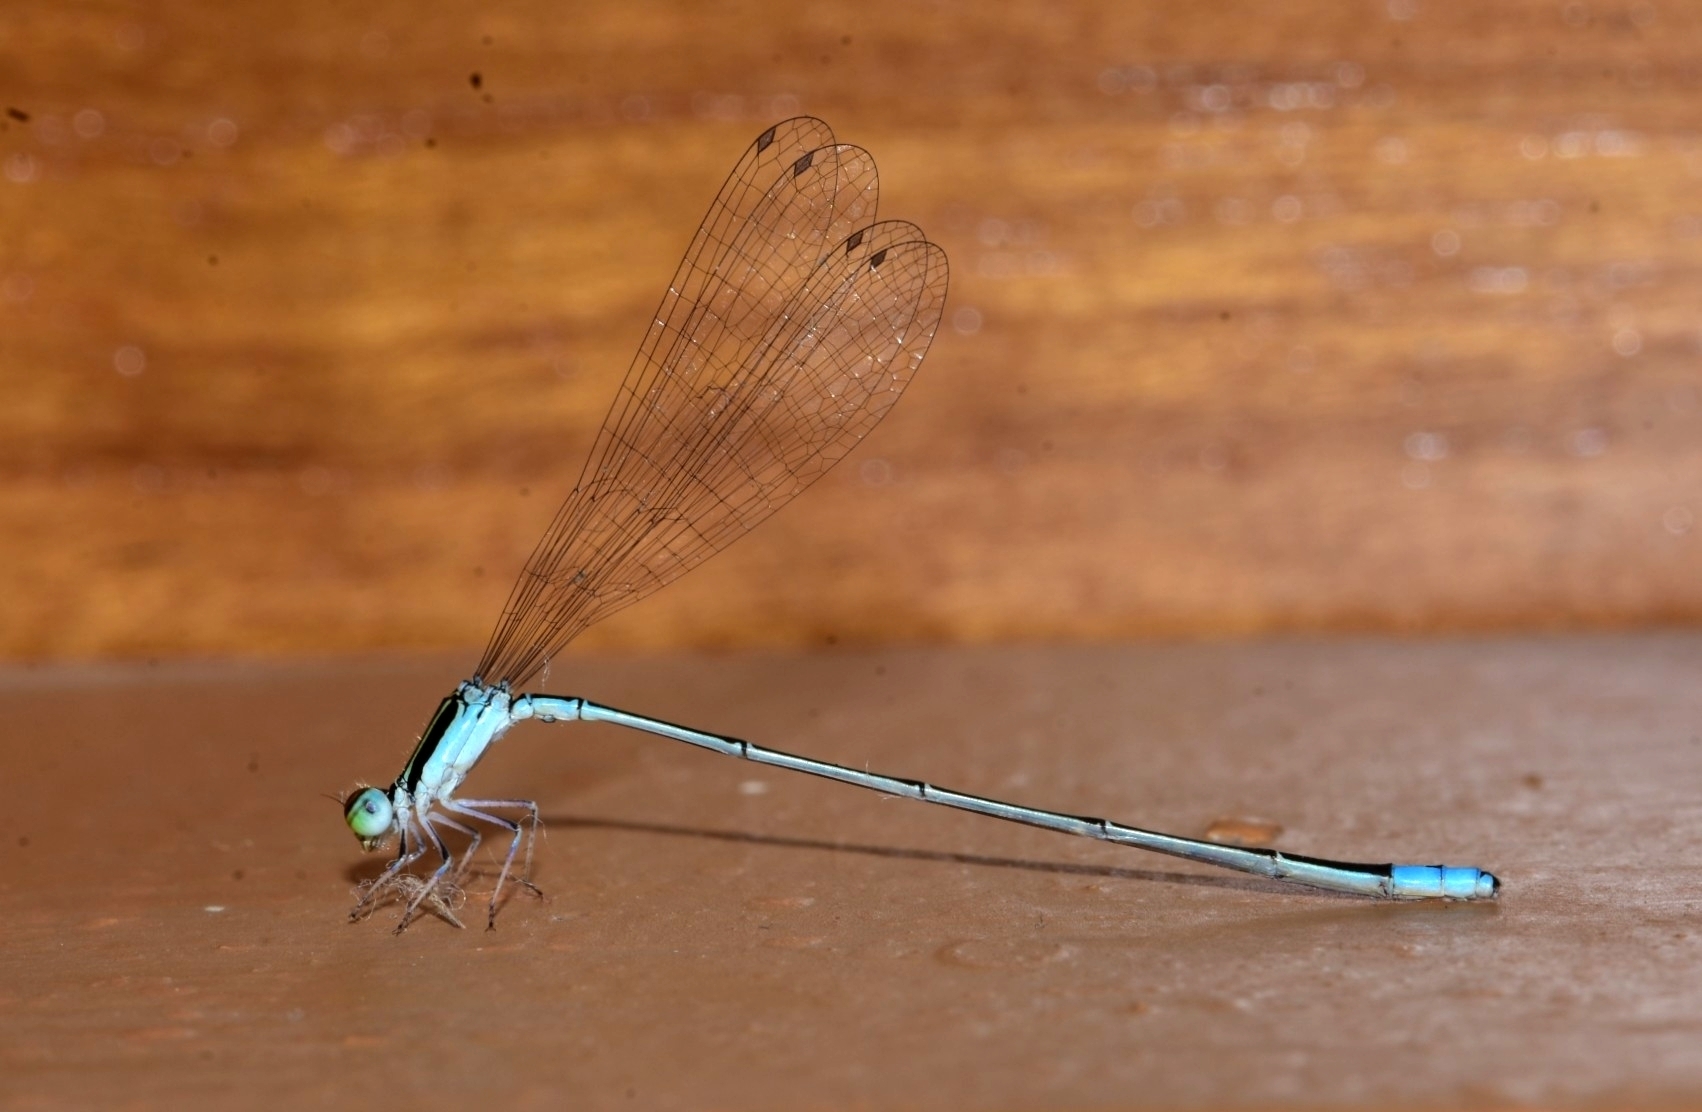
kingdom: Animalia
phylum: Arthropoda
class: Insecta
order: Odonata
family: Coenagrionidae
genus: Aciagrion
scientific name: Aciagrion occidentale
